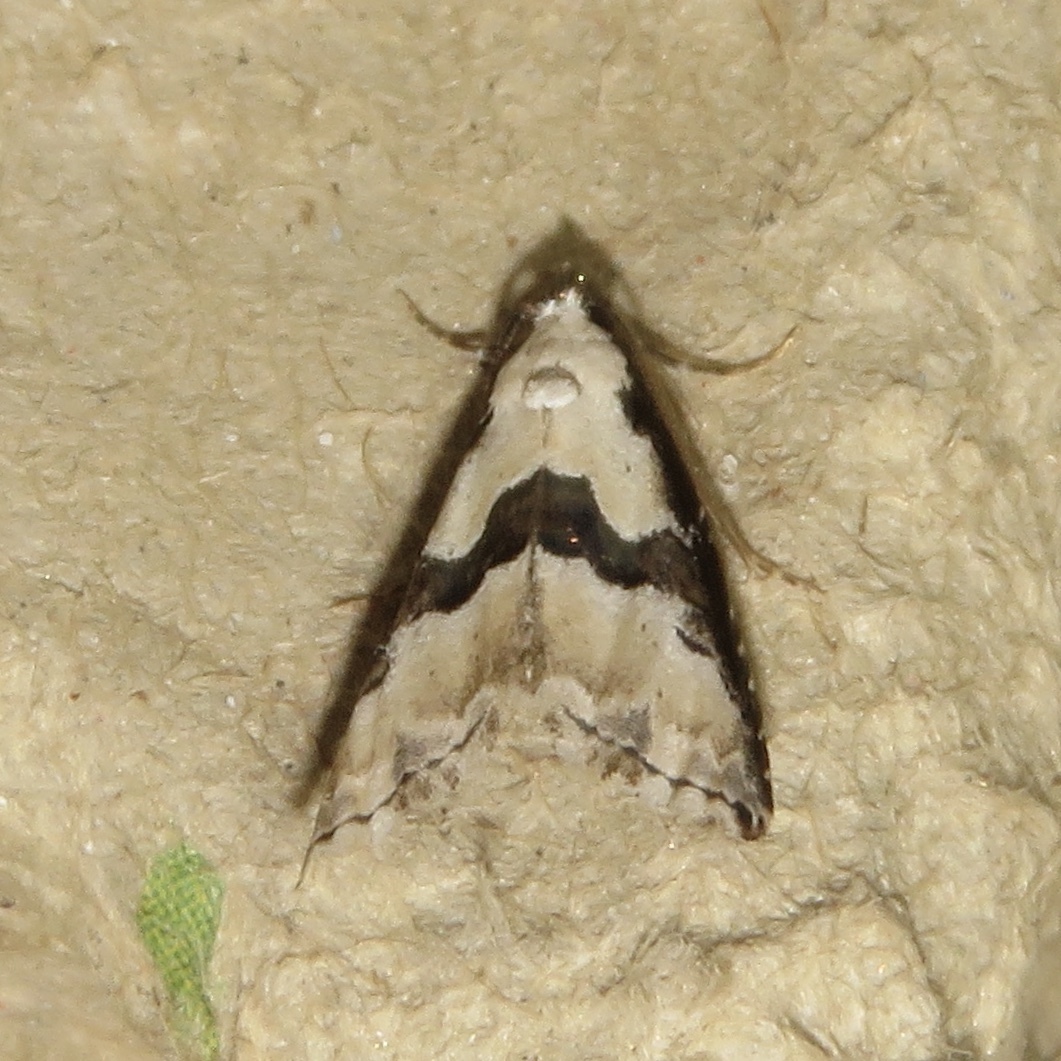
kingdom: Animalia
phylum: Arthropoda
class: Insecta
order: Lepidoptera
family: Noctuidae
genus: Nigetia
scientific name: Nigetia formosalis
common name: Thin-winged owlet
